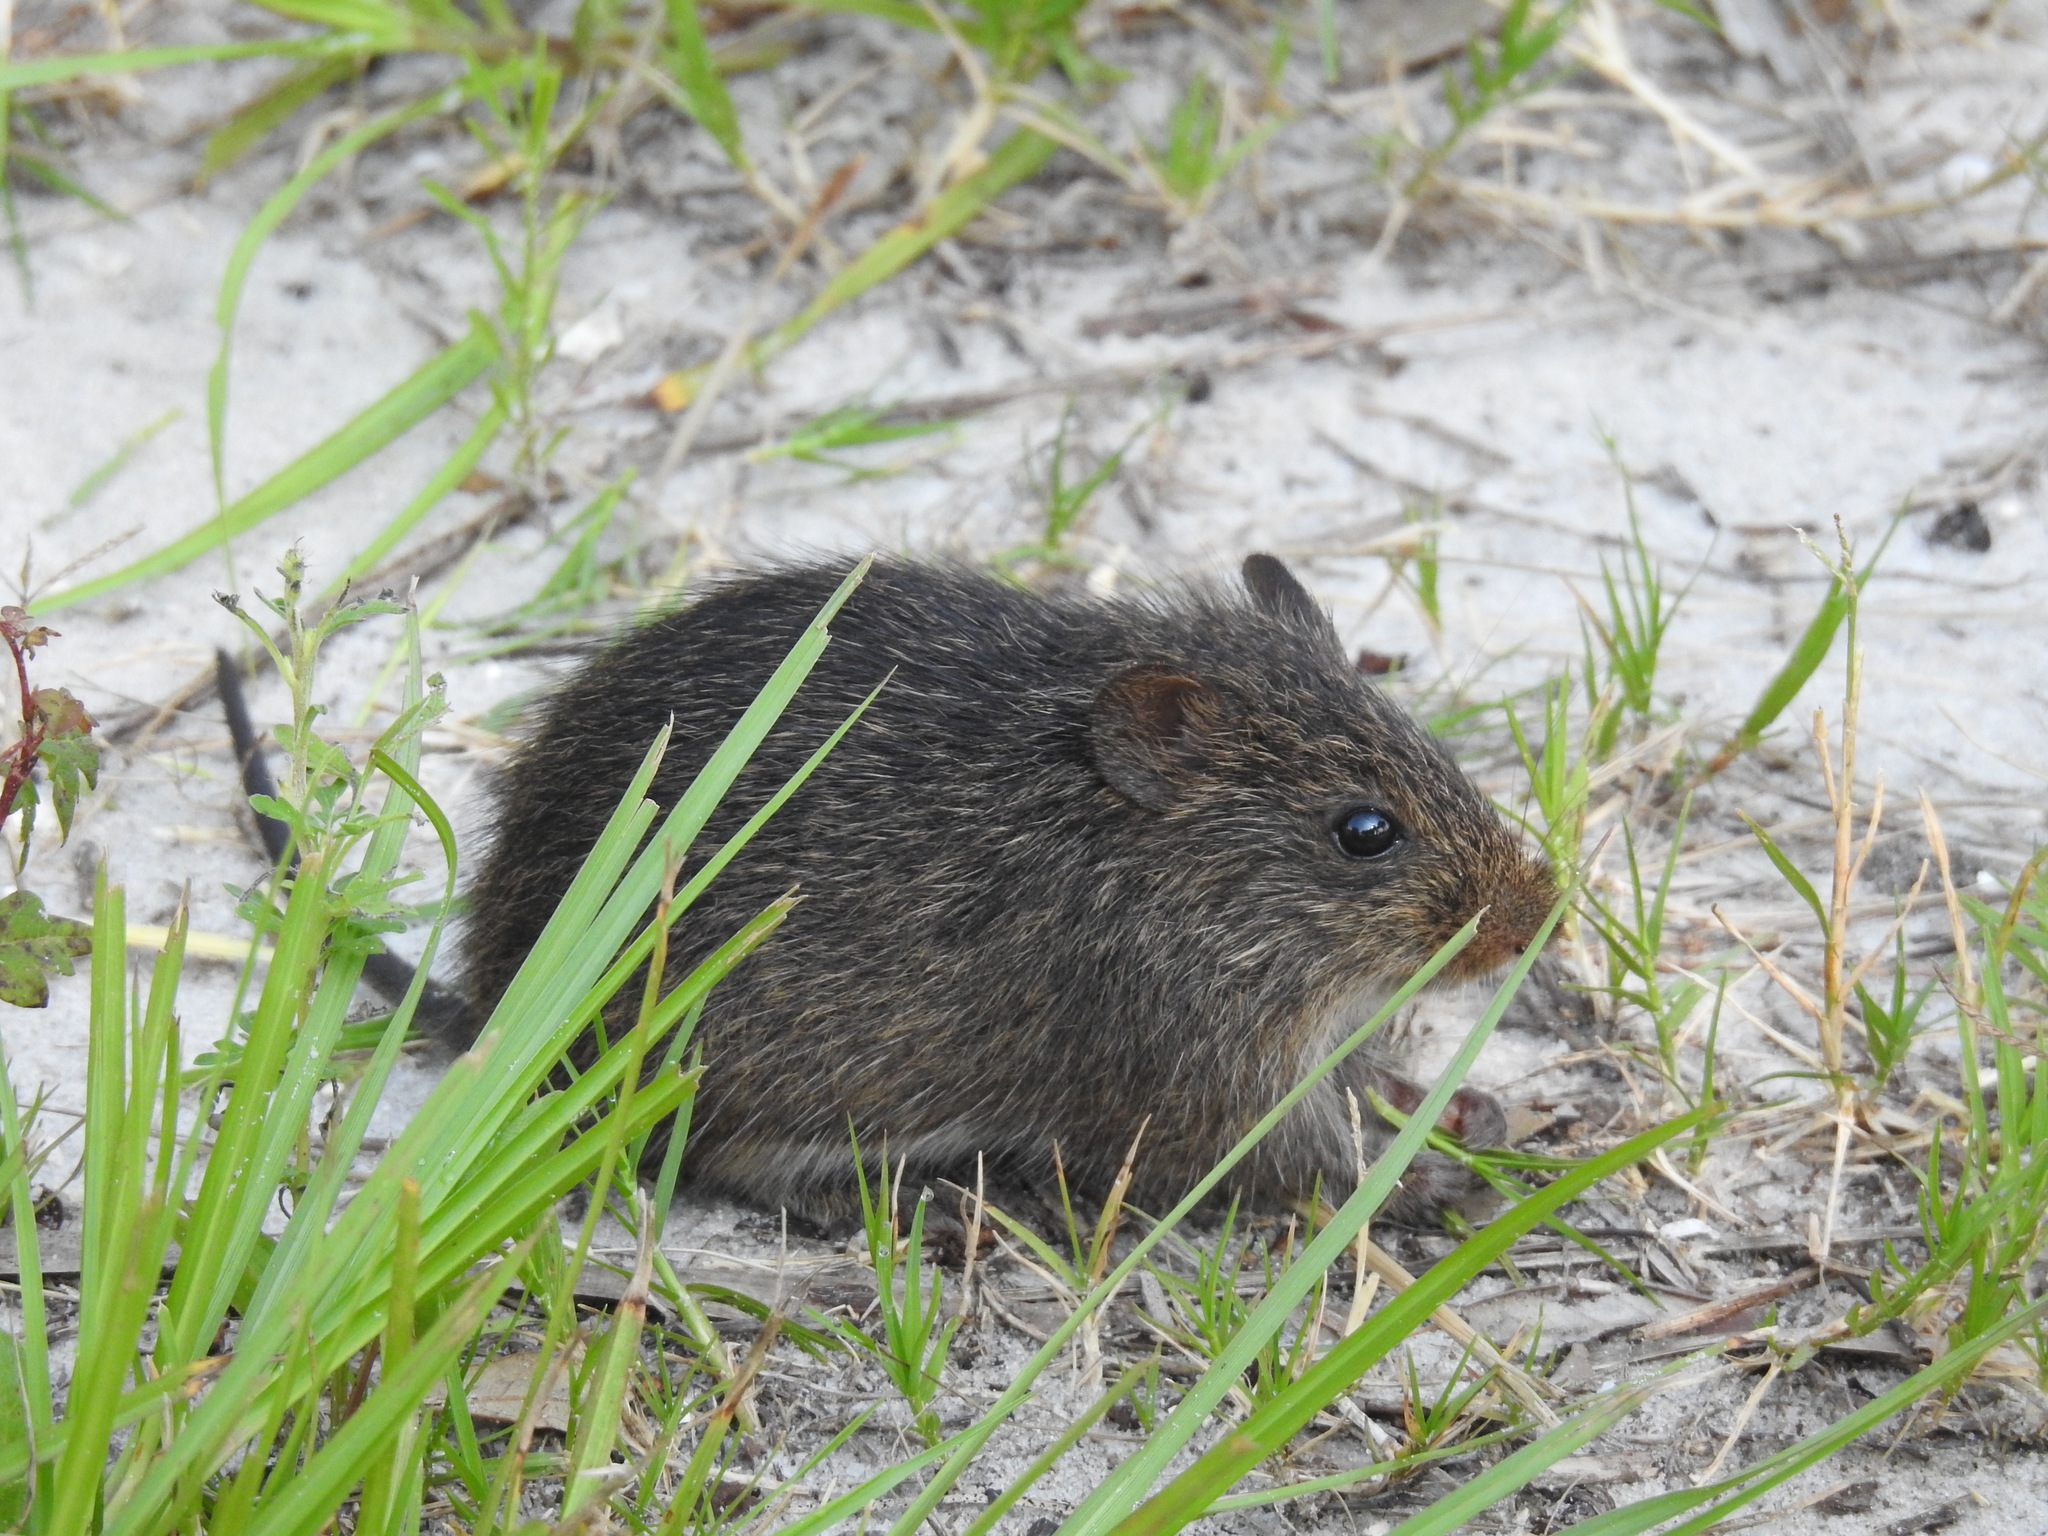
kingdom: Animalia
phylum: Chordata
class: Mammalia
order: Rodentia
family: Cricetidae
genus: Sigmodon
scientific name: Sigmodon hispidus
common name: Hispid cotton rat
